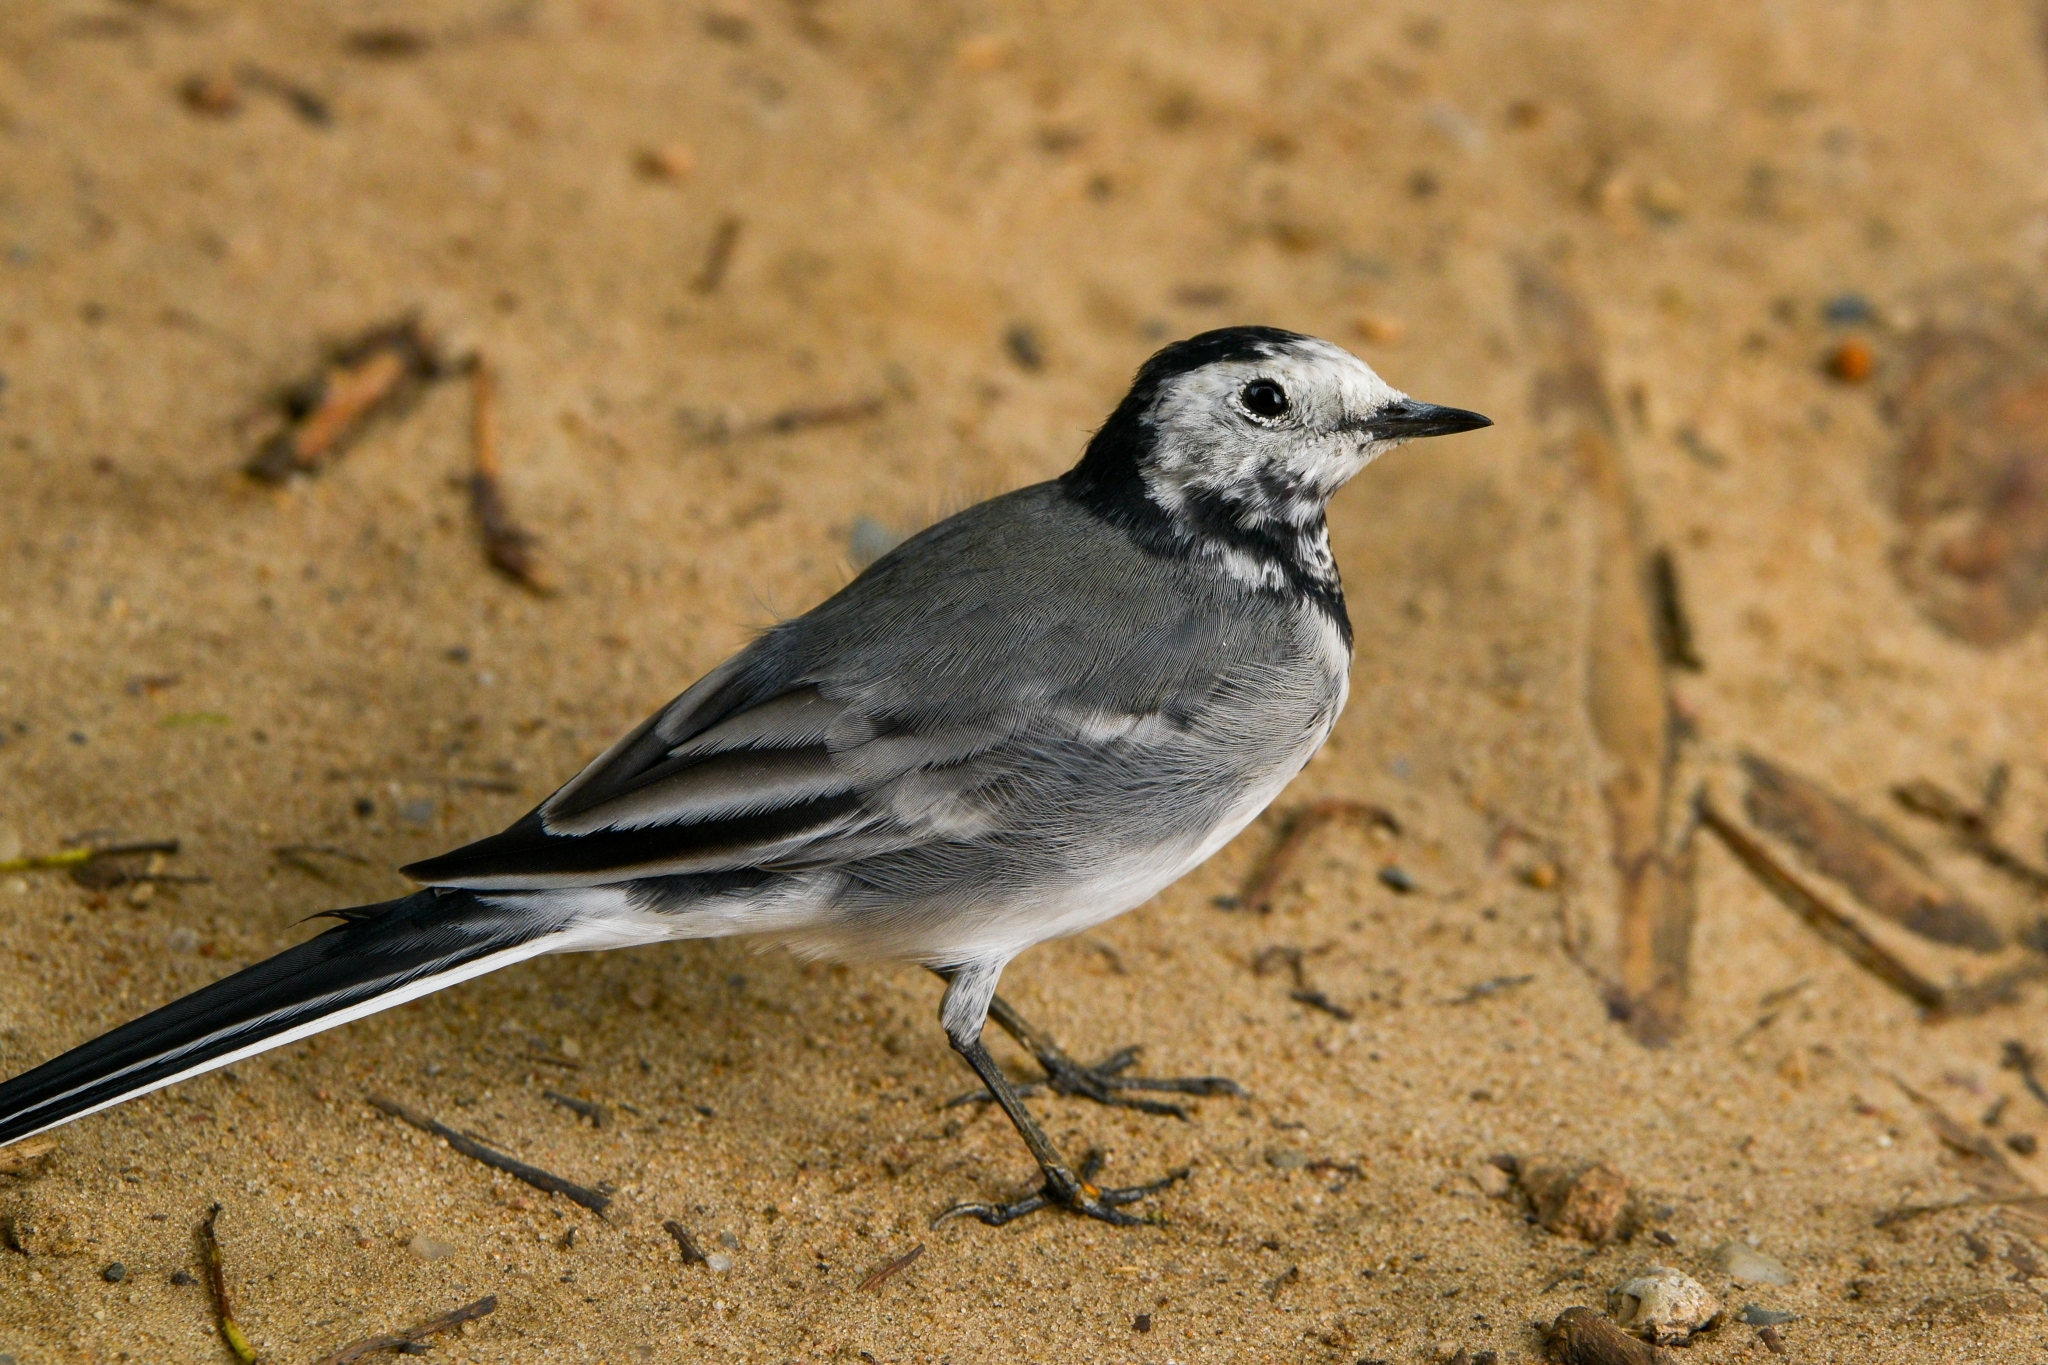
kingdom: Animalia
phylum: Chordata
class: Aves
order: Passeriformes
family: Motacillidae
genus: Motacilla
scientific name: Motacilla alba
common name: White wagtail
